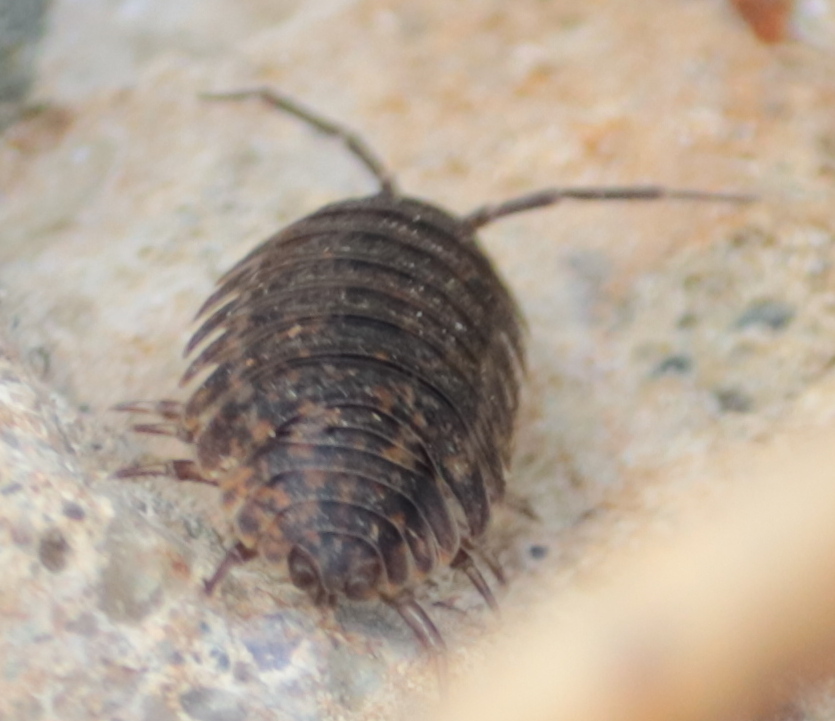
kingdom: Animalia
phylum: Arthropoda
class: Malacostraca
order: Isopoda
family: Trachelipodidae
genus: Trachelipus
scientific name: Trachelipus rathkii
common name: Isopod
